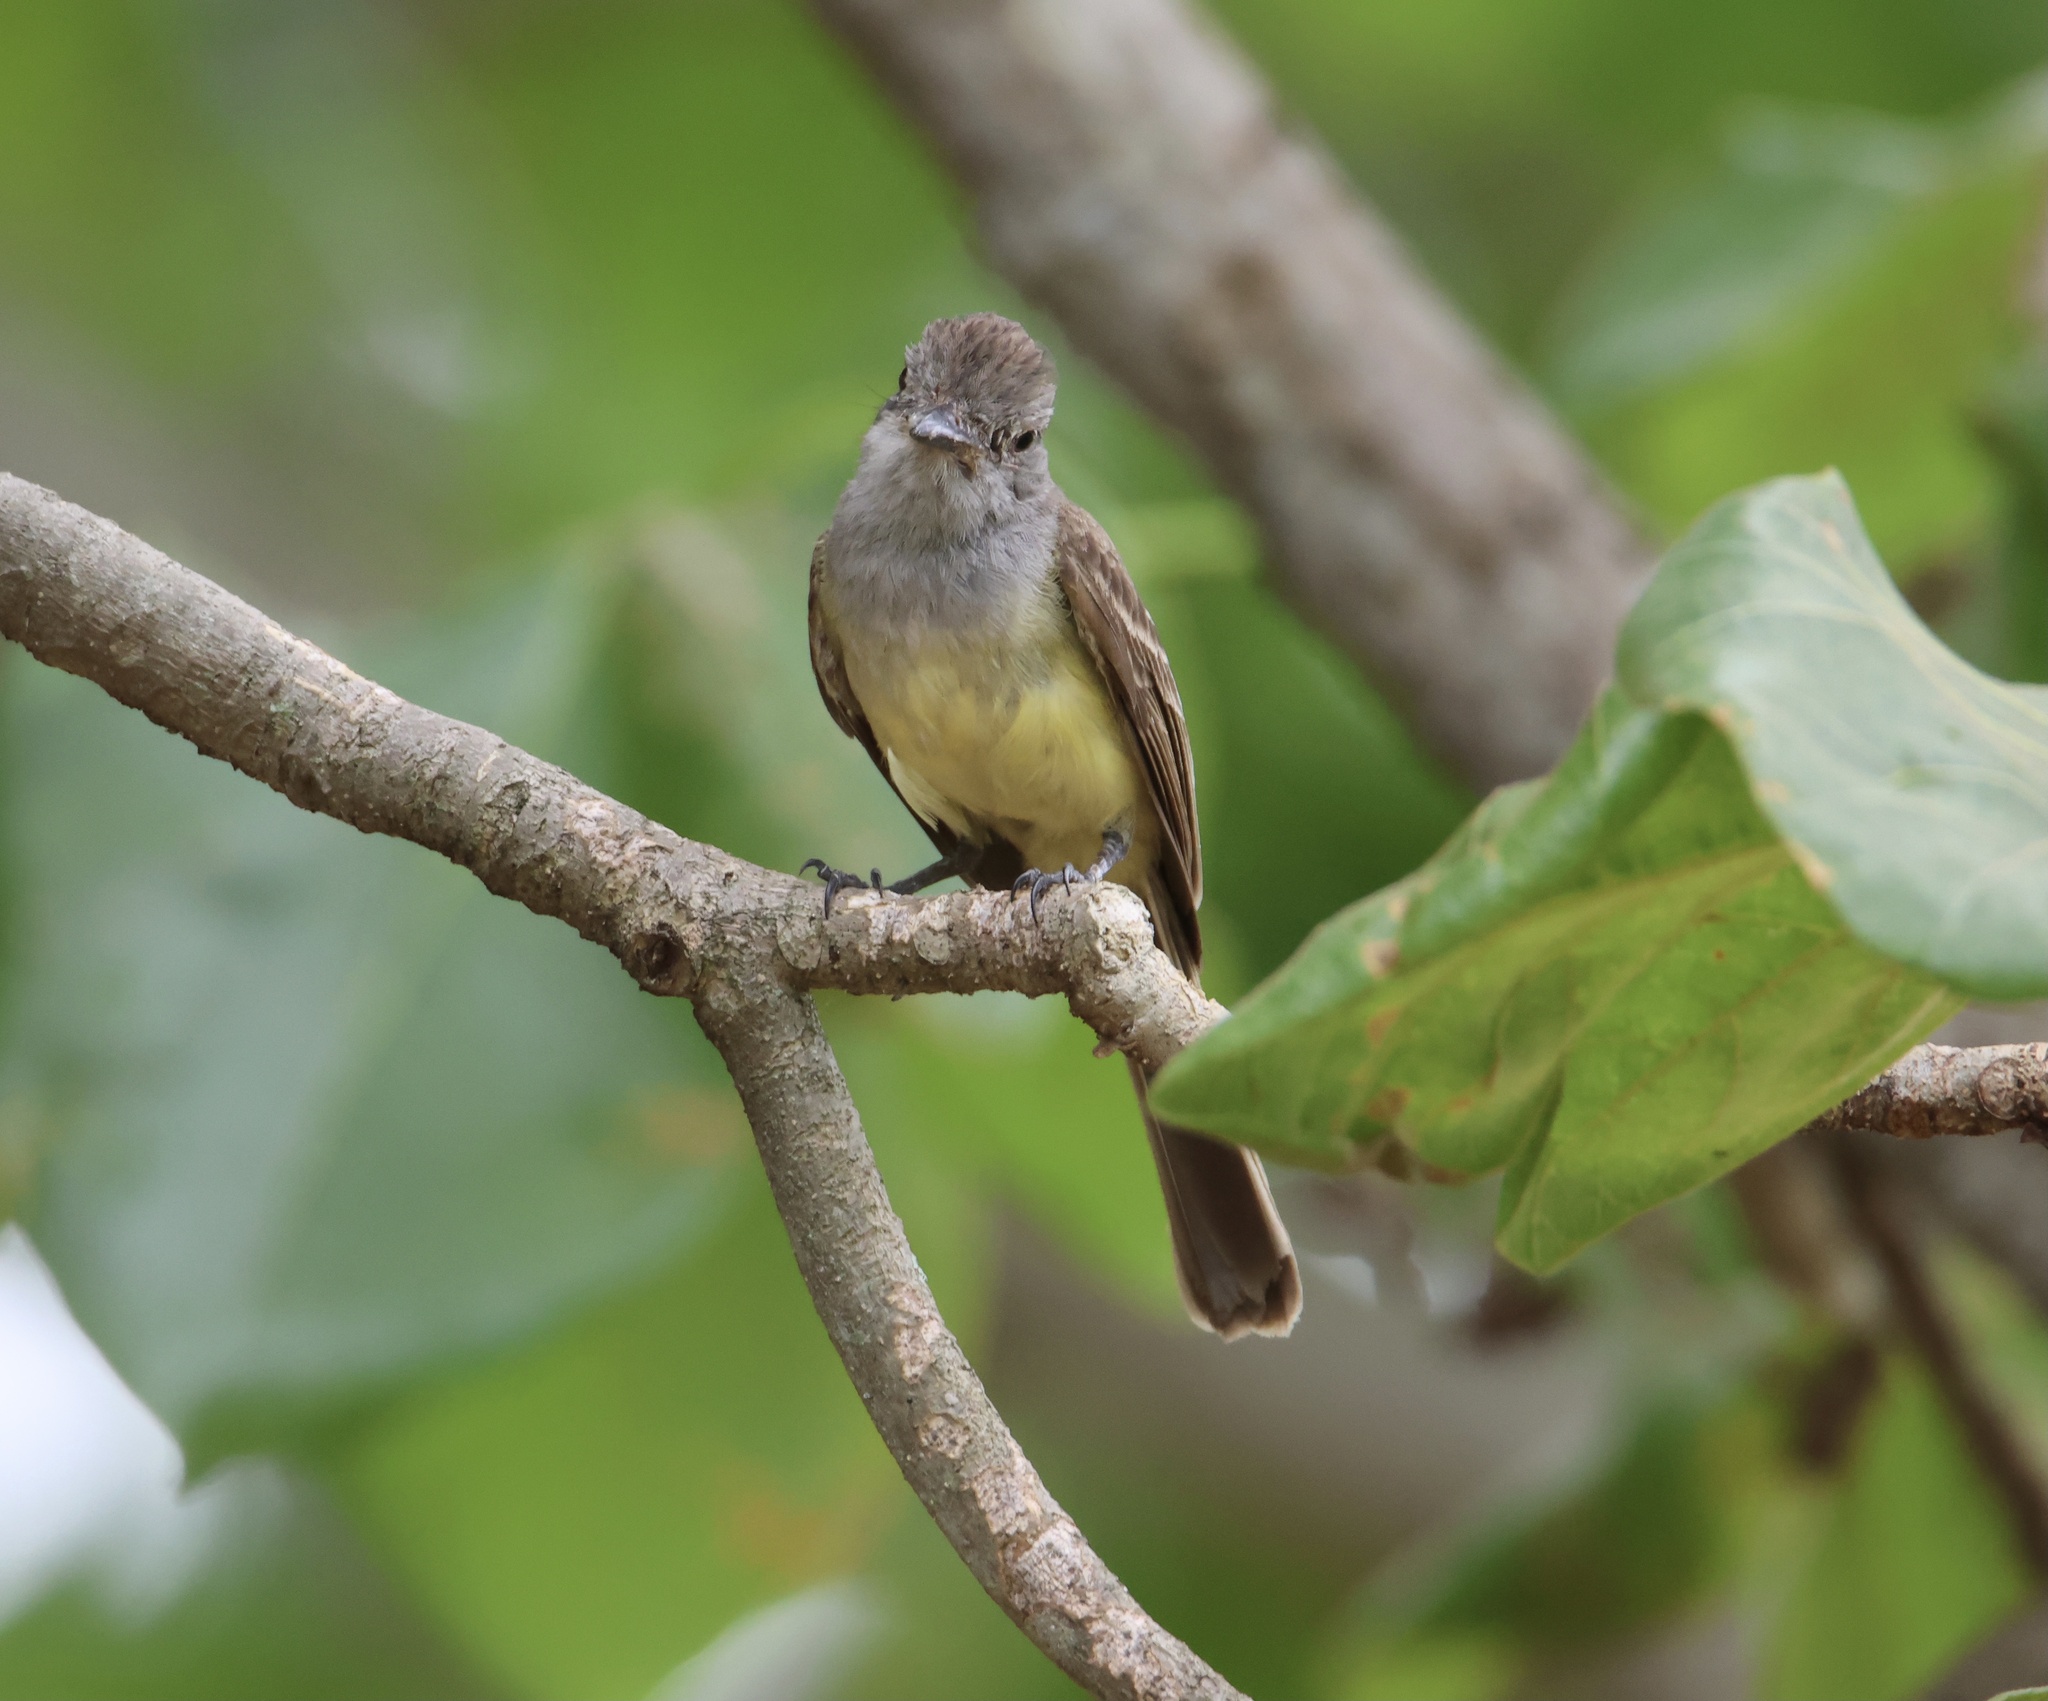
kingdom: Animalia
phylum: Chordata
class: Aves
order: Passeriformes
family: Tyrannidae
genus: Myiarchus
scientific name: Myiarchus panamensis
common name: Panama flycatcher
